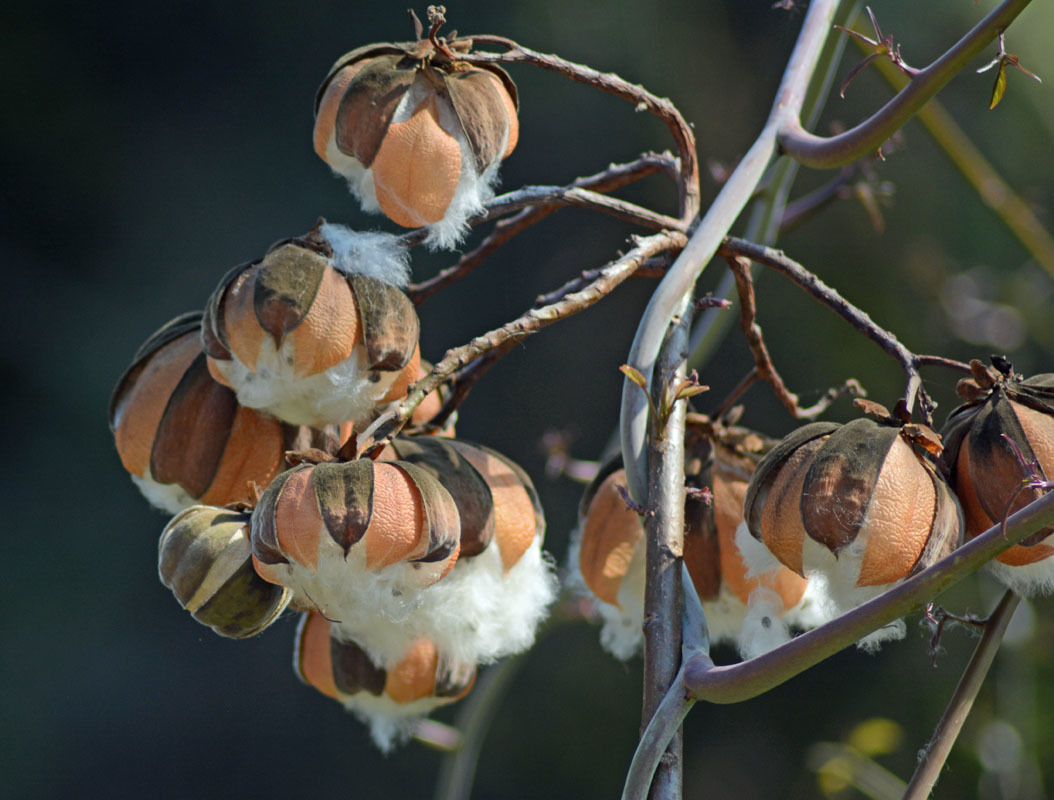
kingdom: Plantae
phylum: Tracheophyta
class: Magnoliopsida
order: Malvales
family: Cochlospermaceae
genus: Cochlospermum
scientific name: Cochlospermum vitifolium
